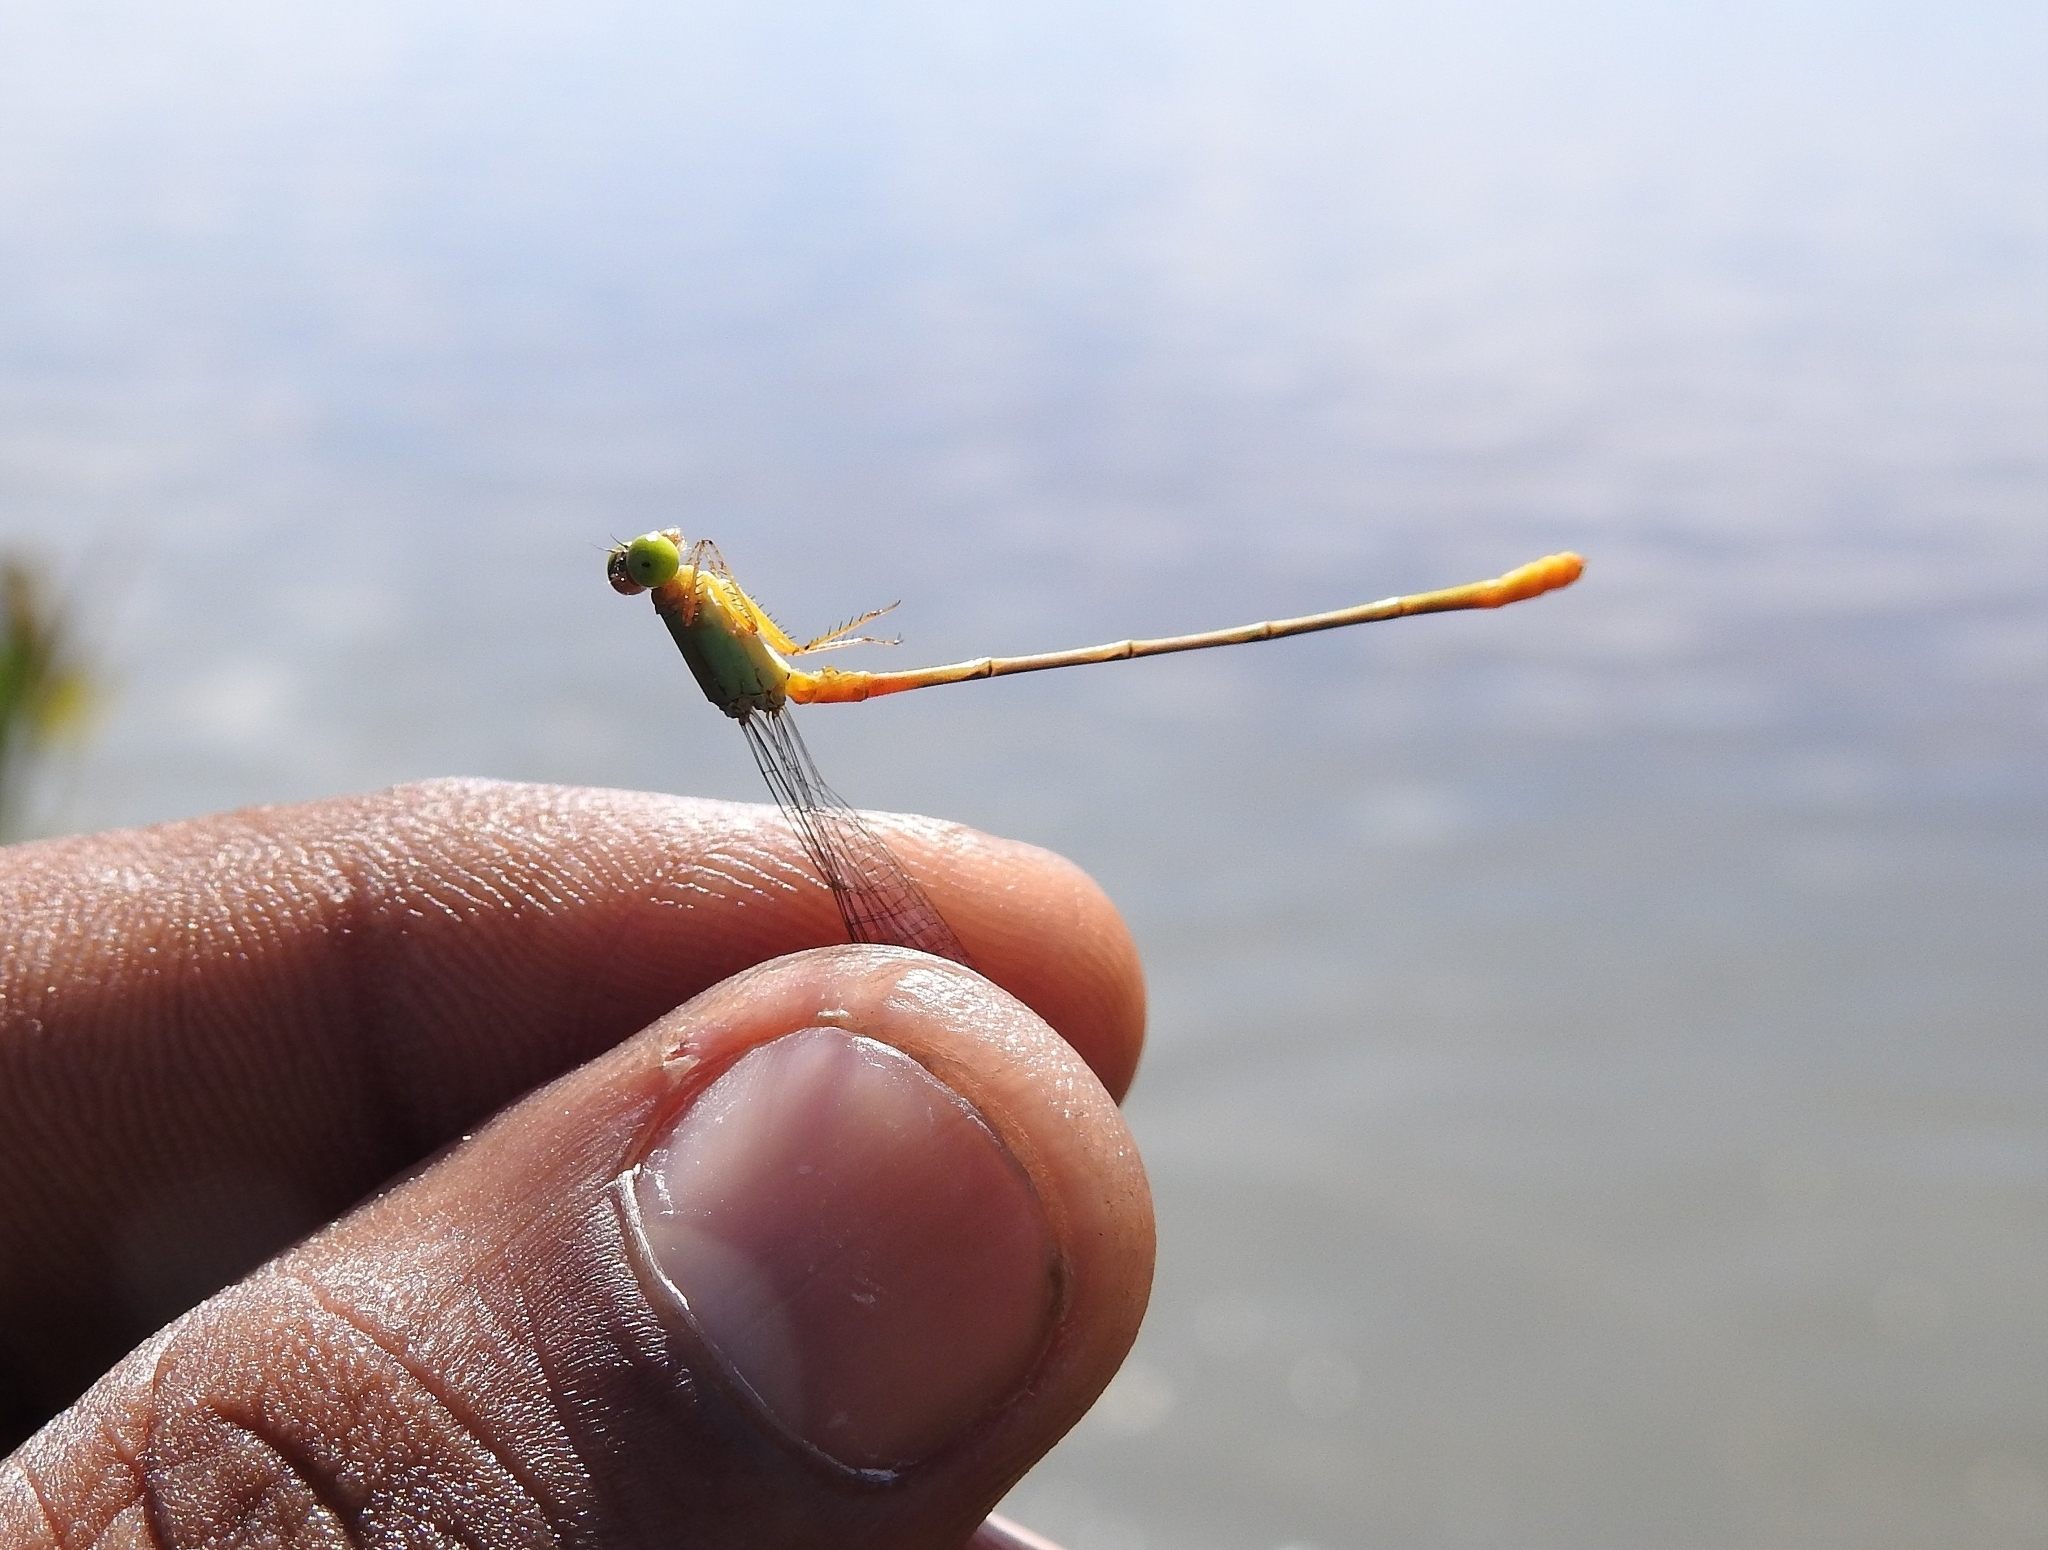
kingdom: Animalia
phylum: Arthropoda
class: Insecta
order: Odonata
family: Coenagrionidae
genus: Ceriagrion
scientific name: Ceriagrion cerinorubellum
